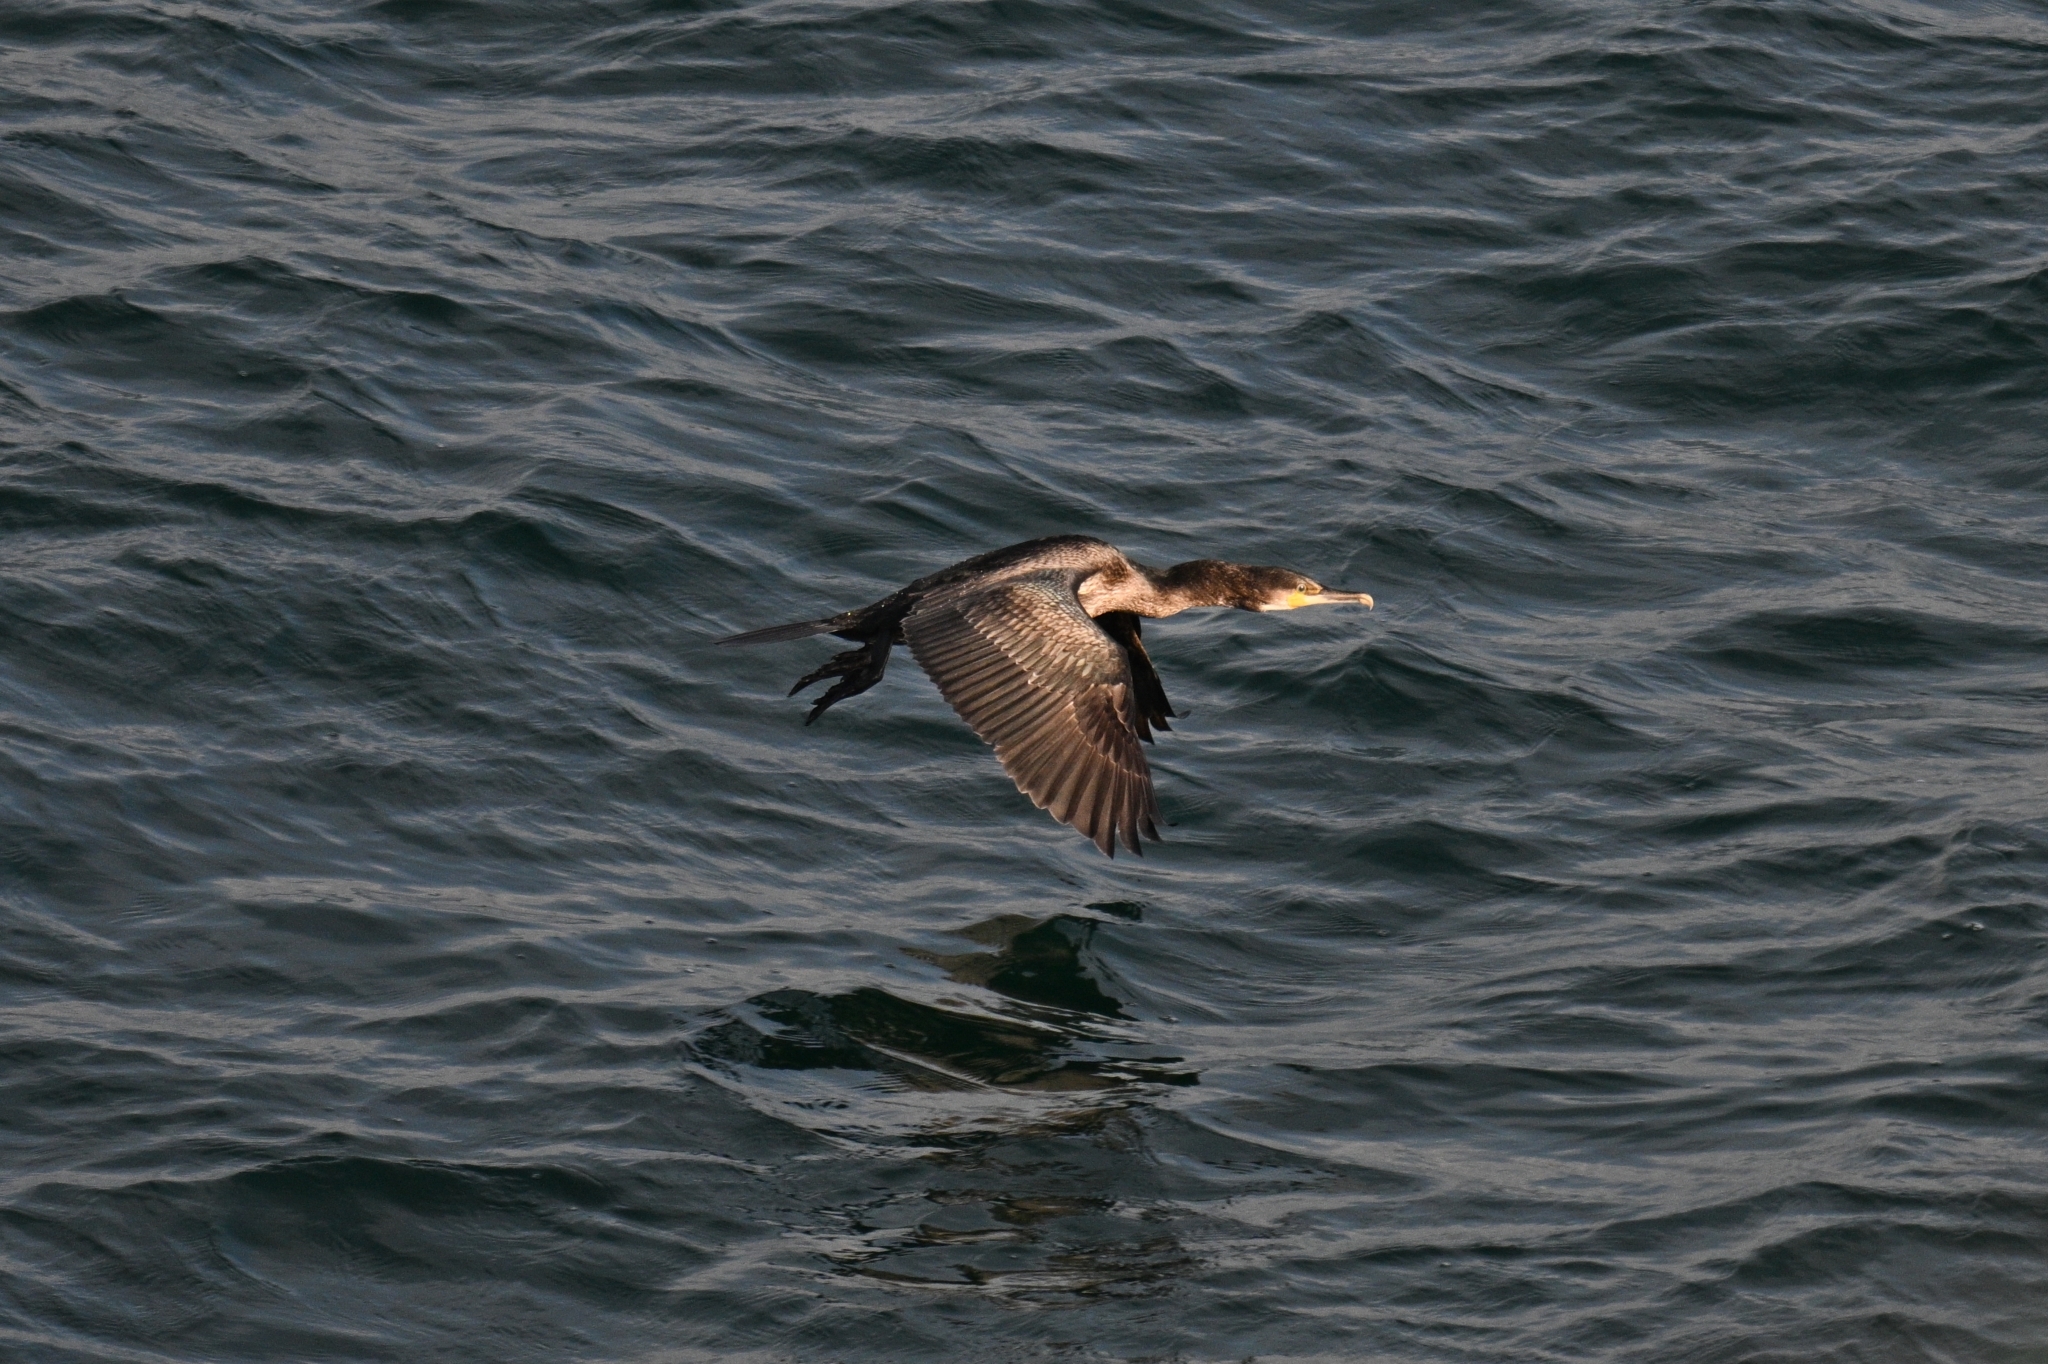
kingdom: Animalia
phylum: Chordata
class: Aves
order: Suliformes
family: Phalacrocoracidae
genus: Phalacrocorax
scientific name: Phalacrocorax carbo
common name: Great cormorant
